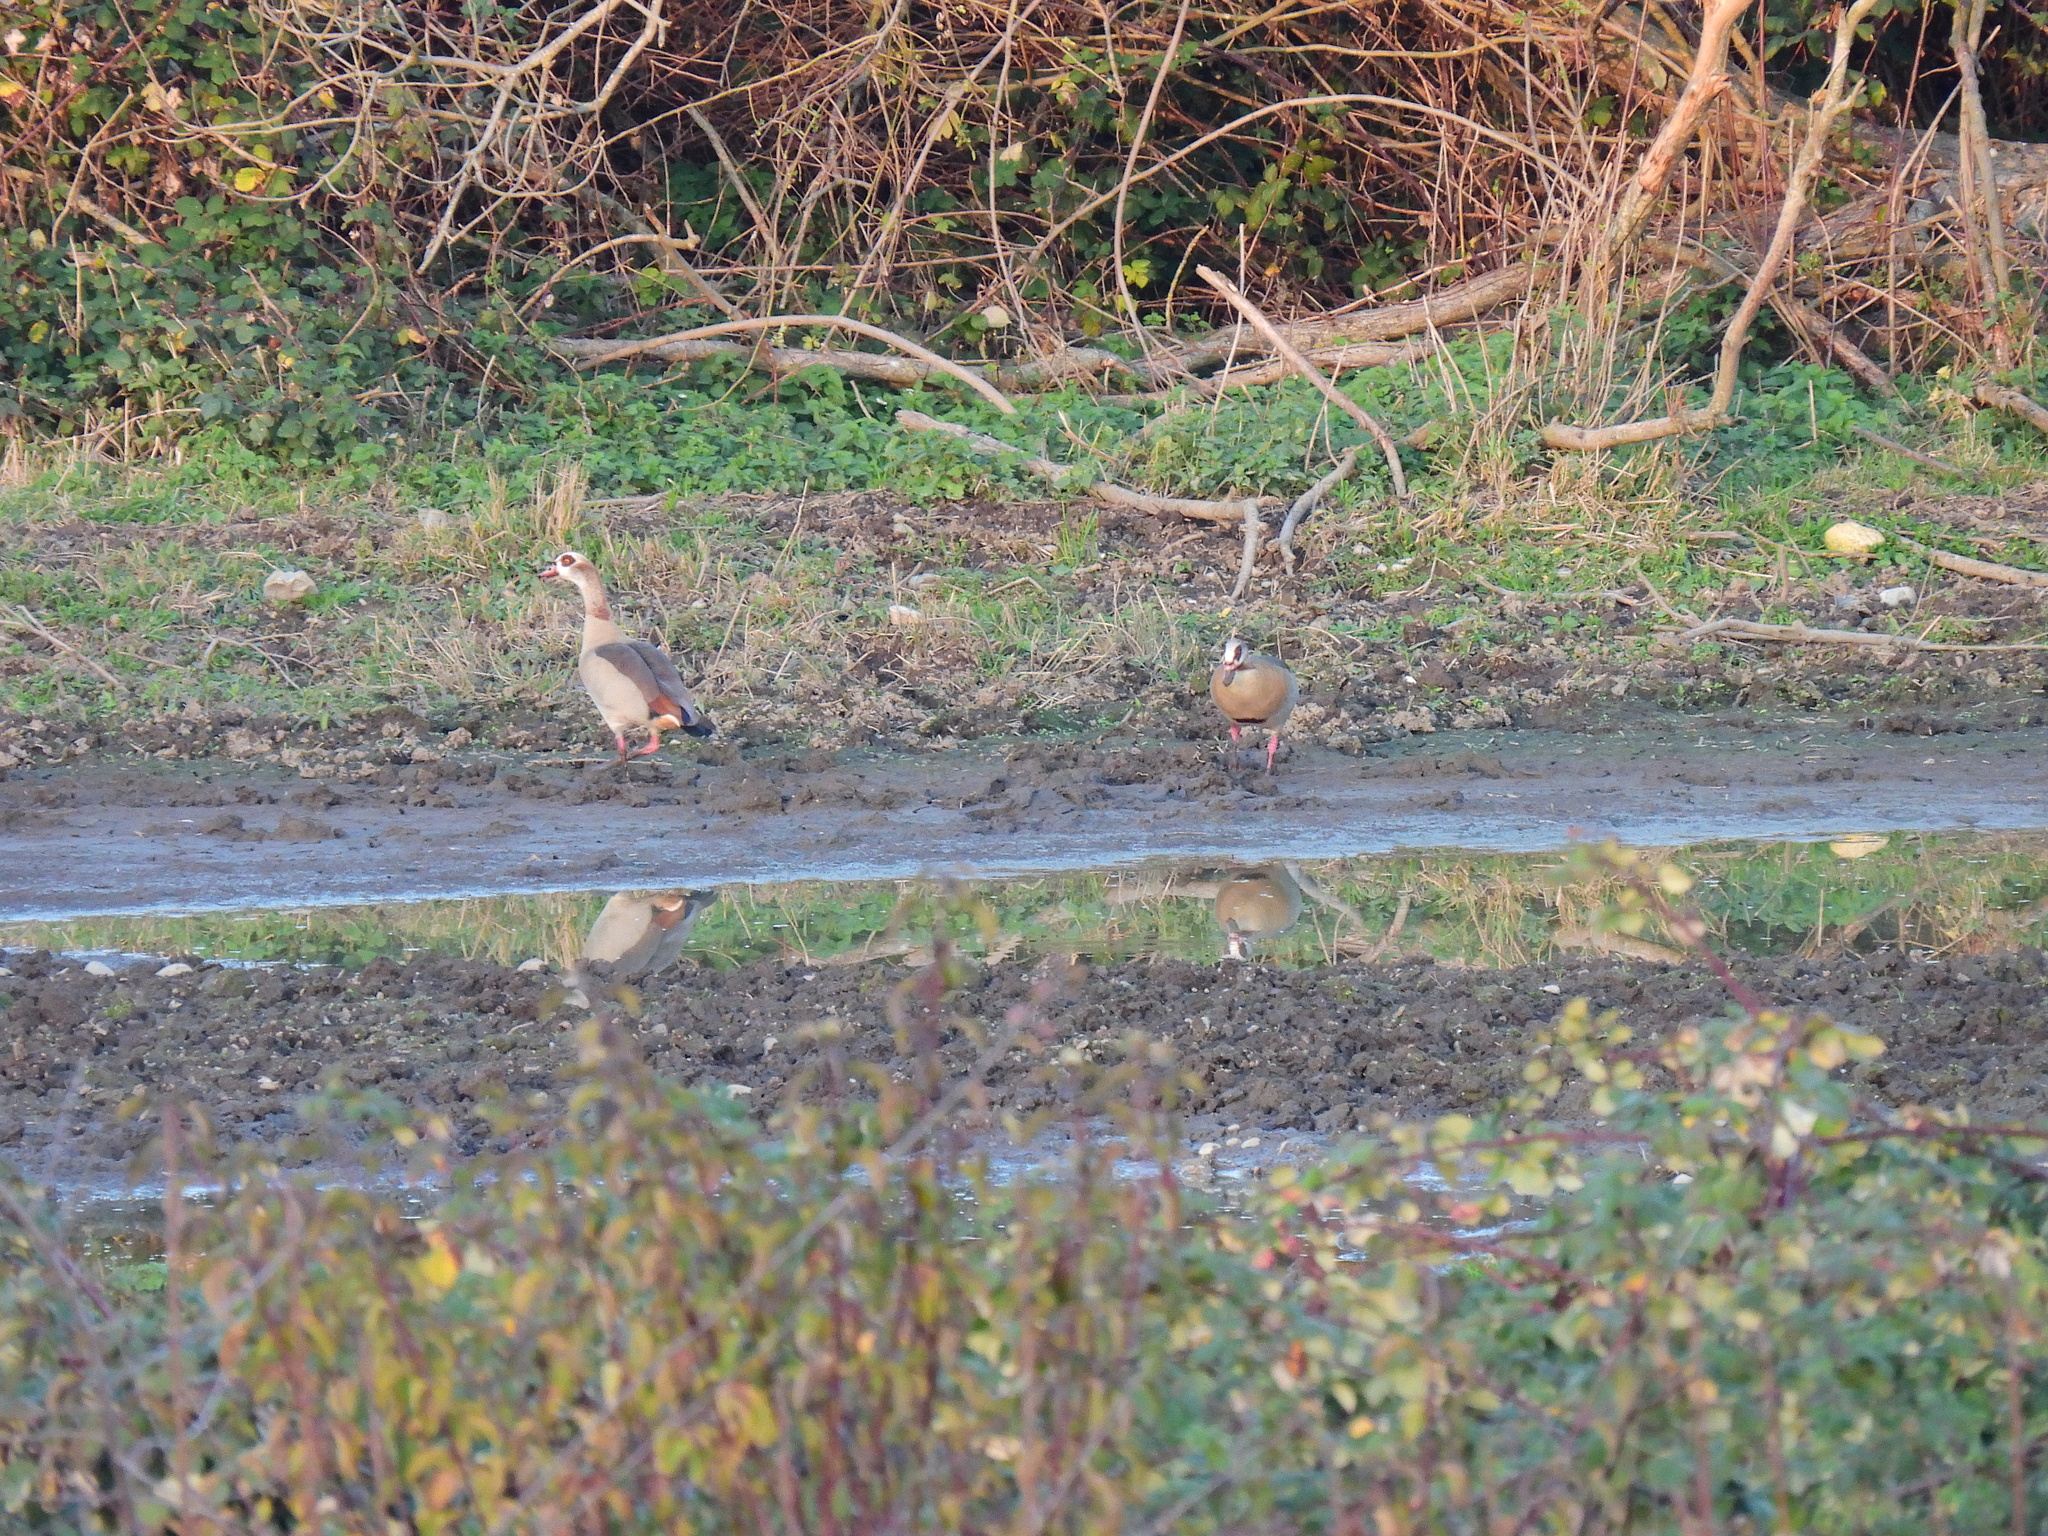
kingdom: Animalia
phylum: Chordata
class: Aves
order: Anseriformes
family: Anatidae
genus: Alopochen
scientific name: Alopochen aegyptiaca
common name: Egyptian goose
